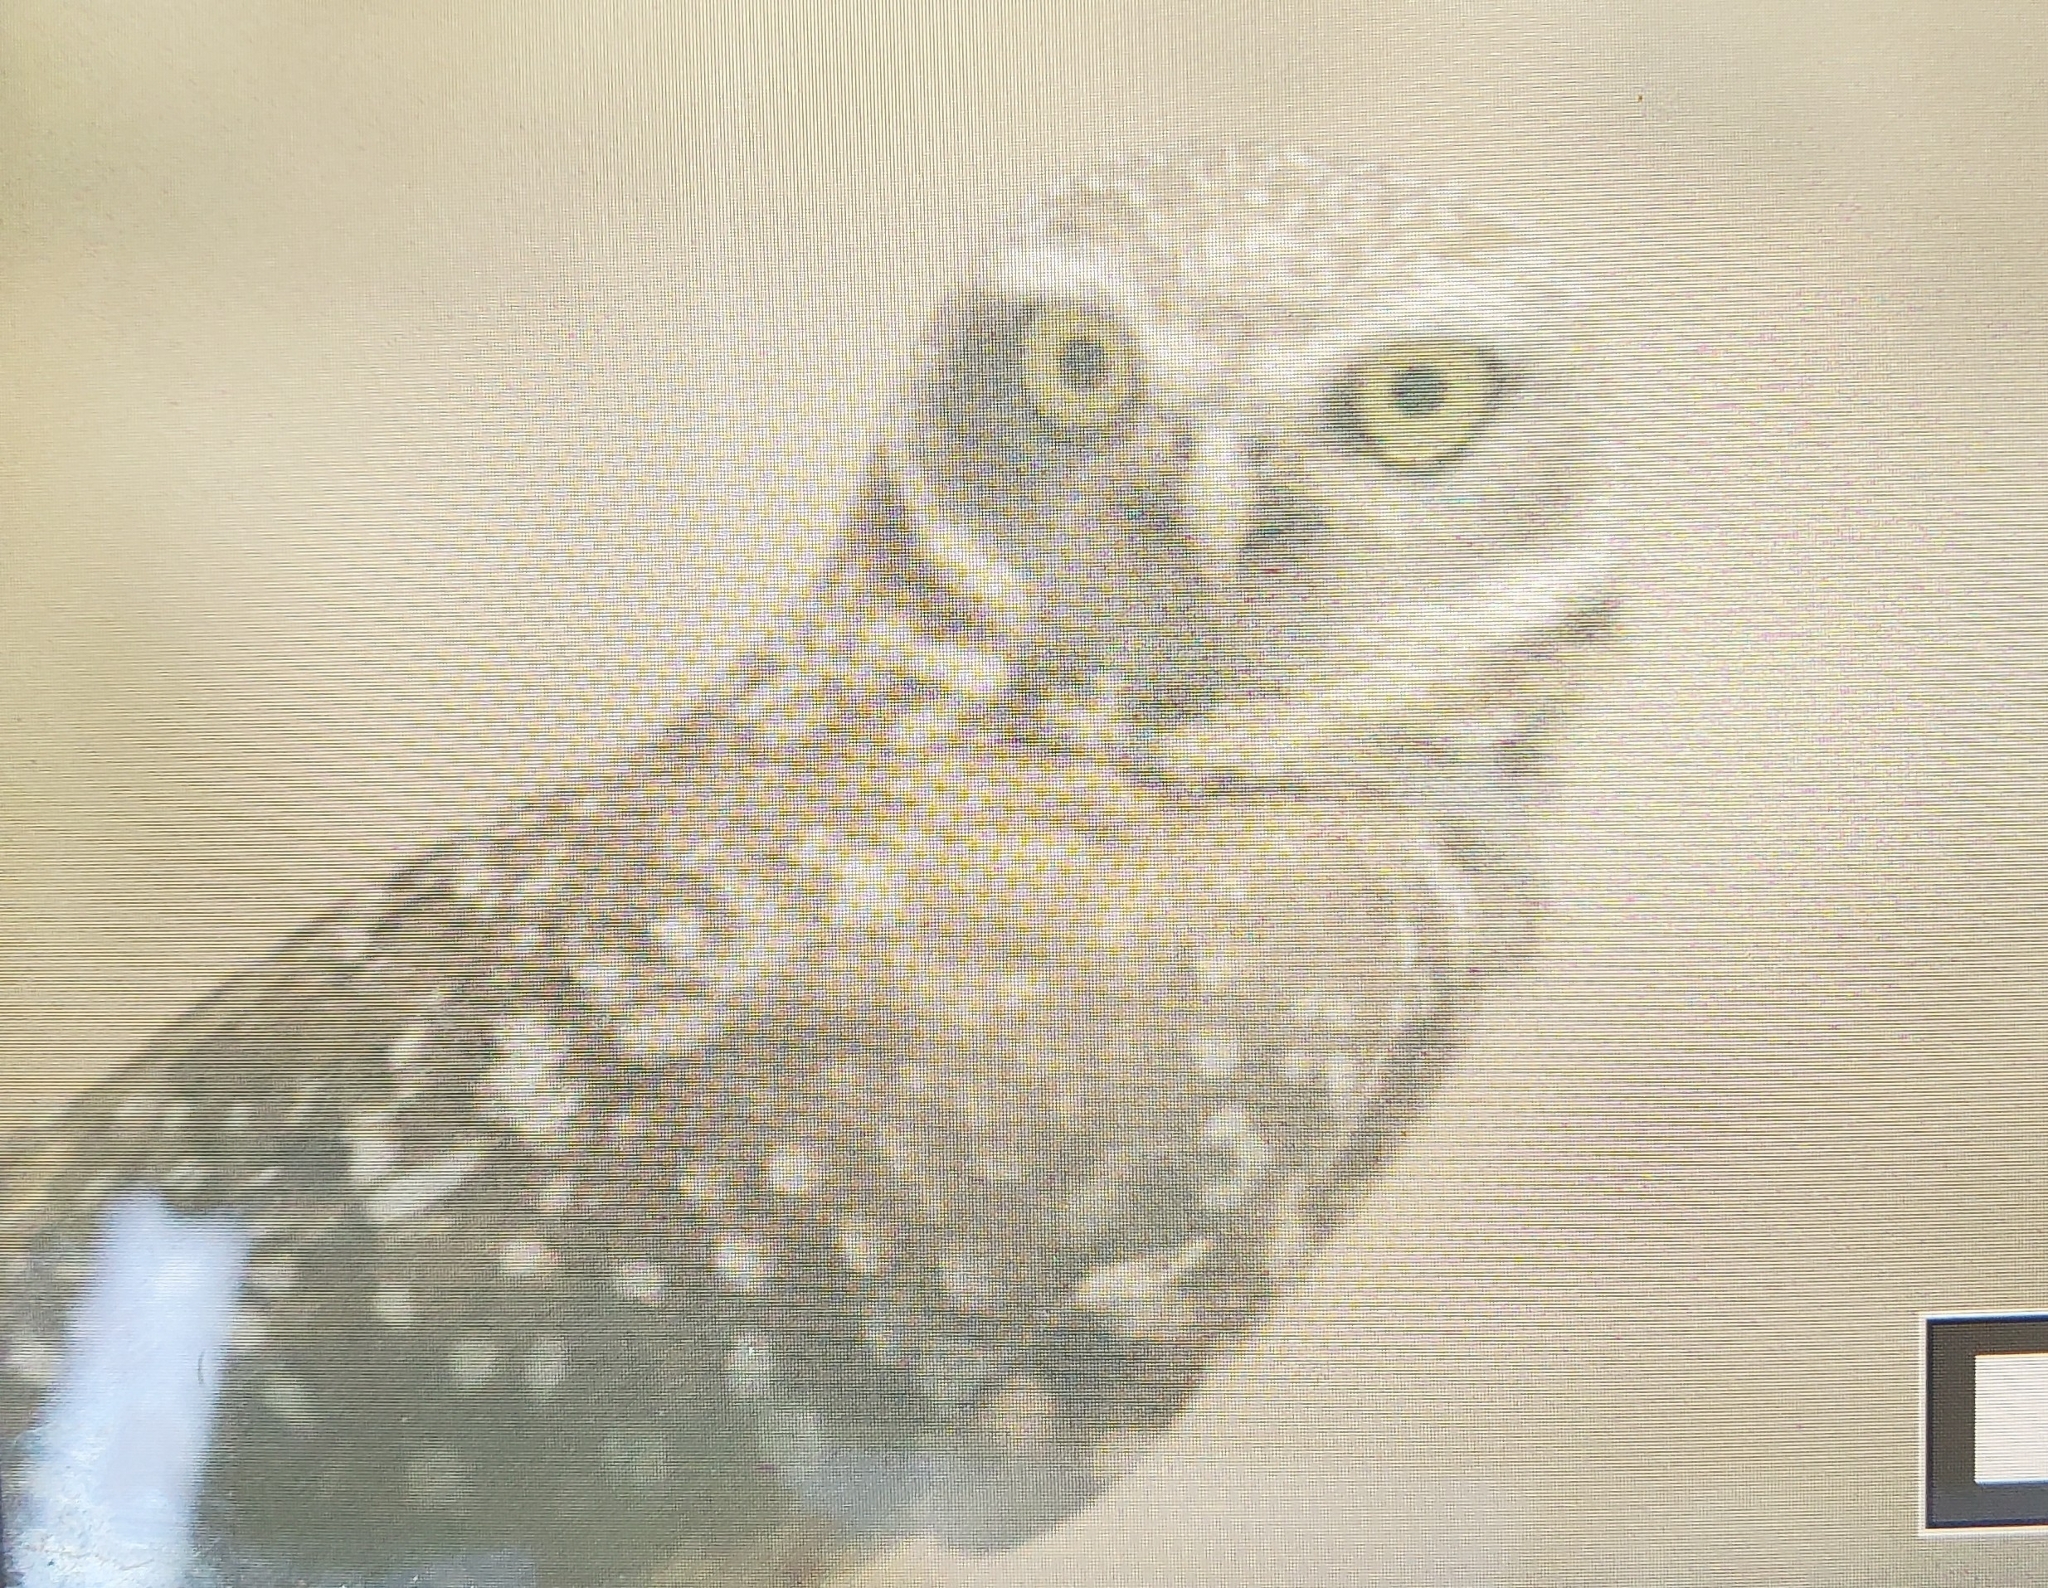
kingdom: Animalia
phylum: Chordata
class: Aves
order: Strigiformes
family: Strigidae
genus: Athene
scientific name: Athene cunicularia
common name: Burrowing owl
